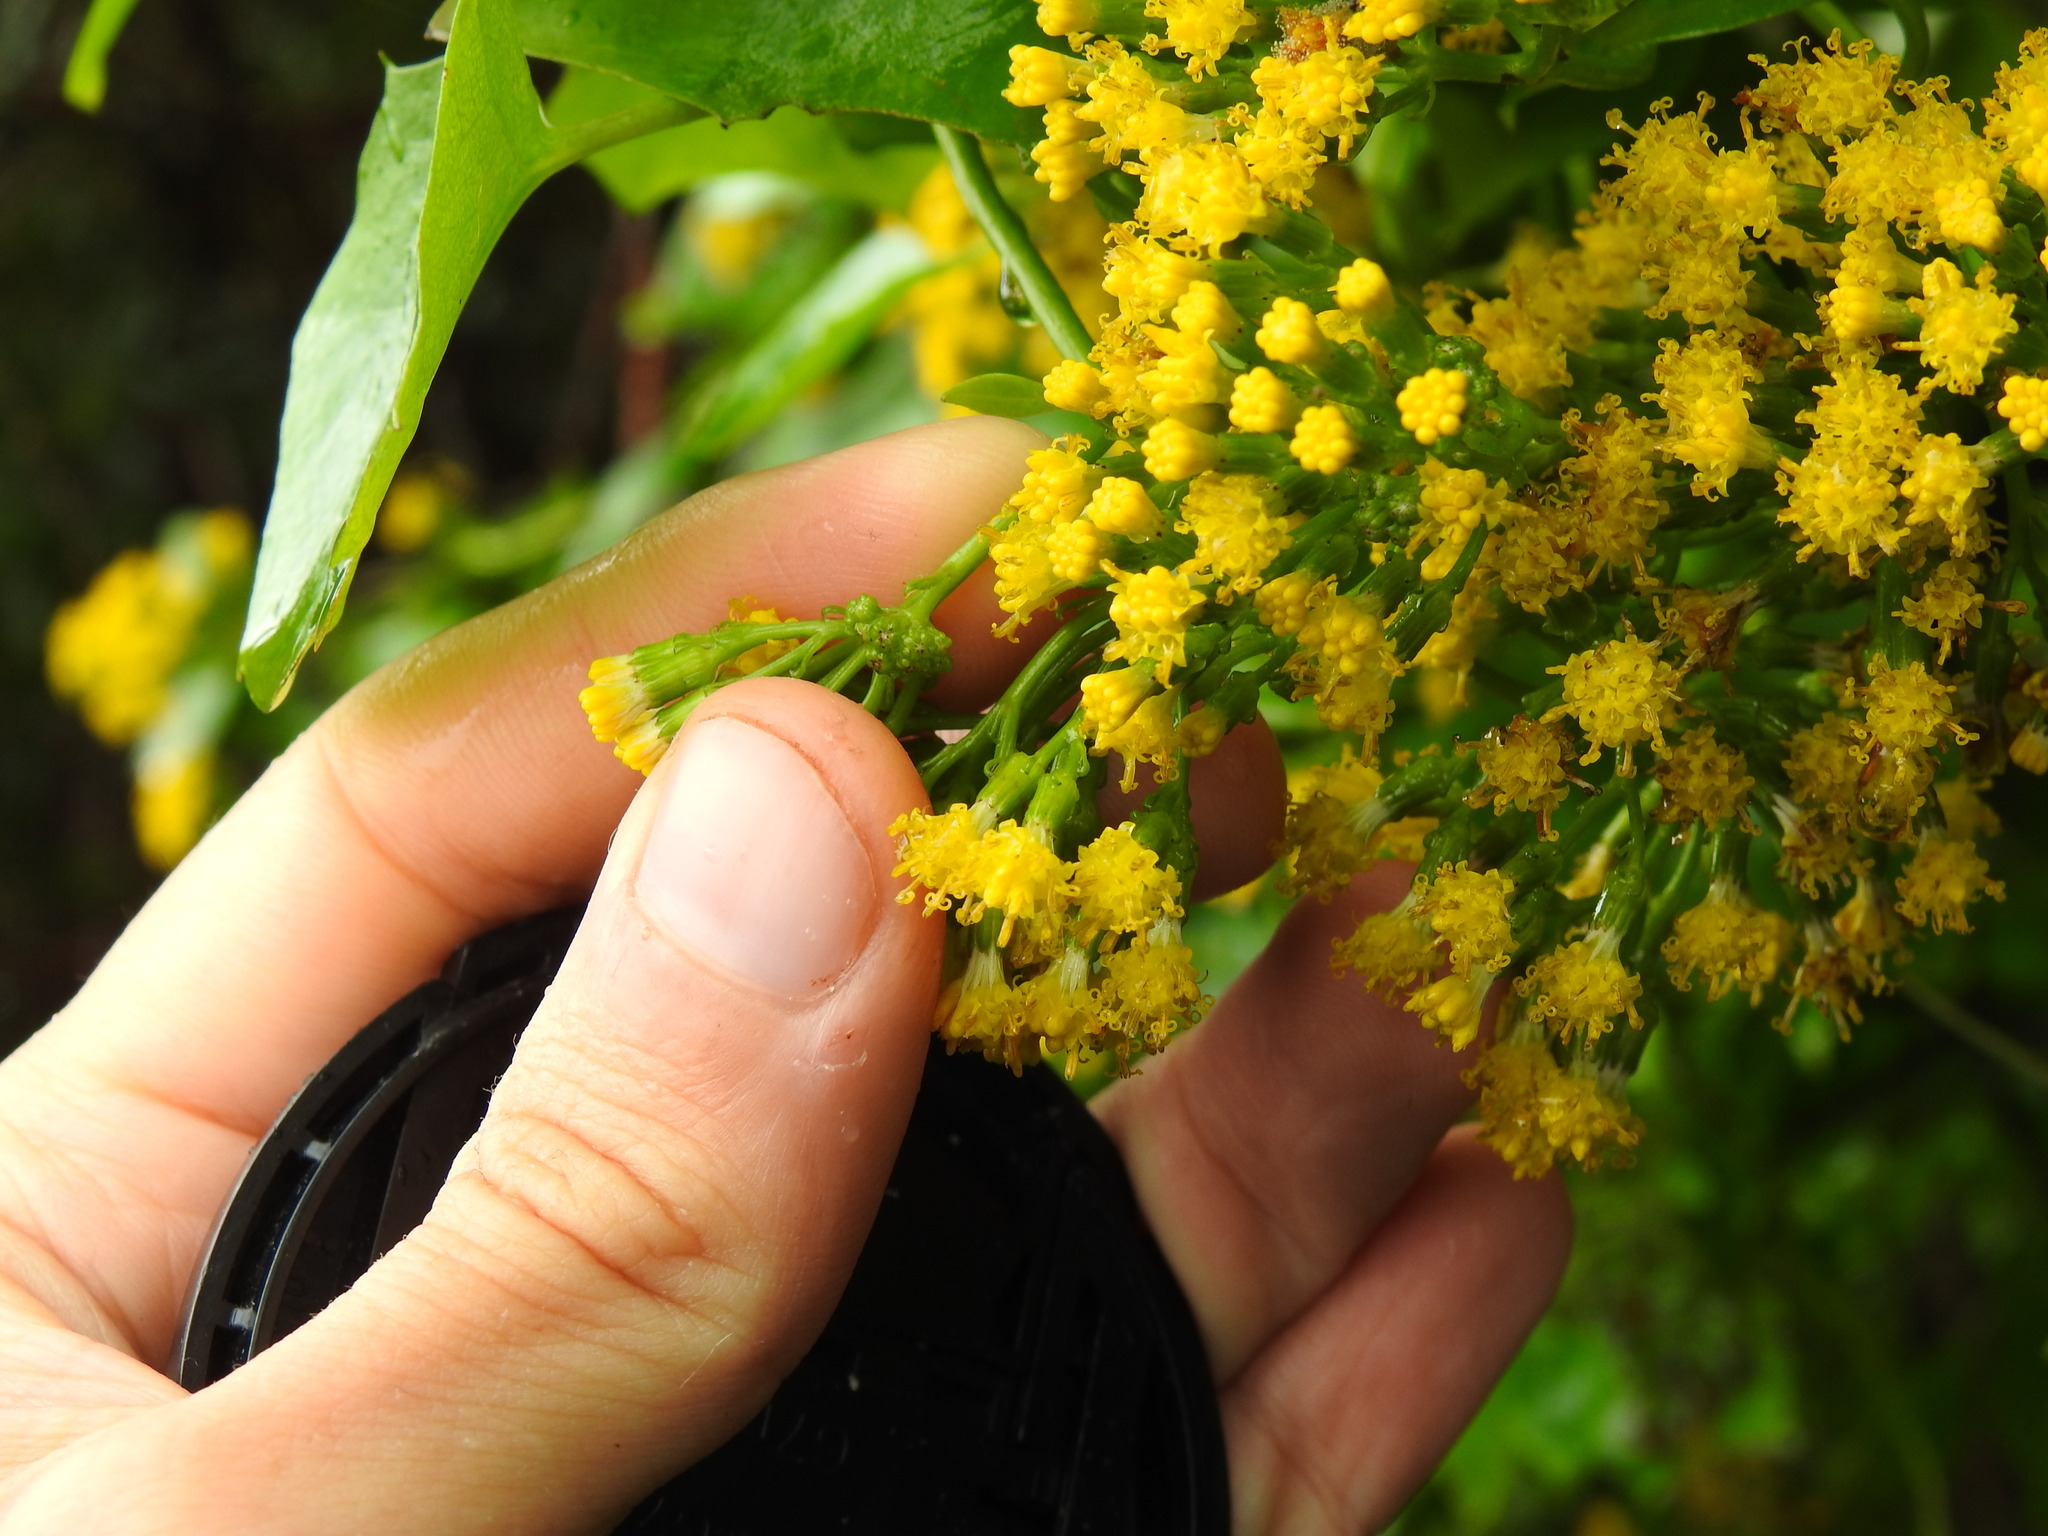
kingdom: Plantae
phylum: Tracheophyta
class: Magnoliopsida
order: Asterales
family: Asteraceae
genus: Delairea
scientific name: Delairea odorata
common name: Cape-ivy
